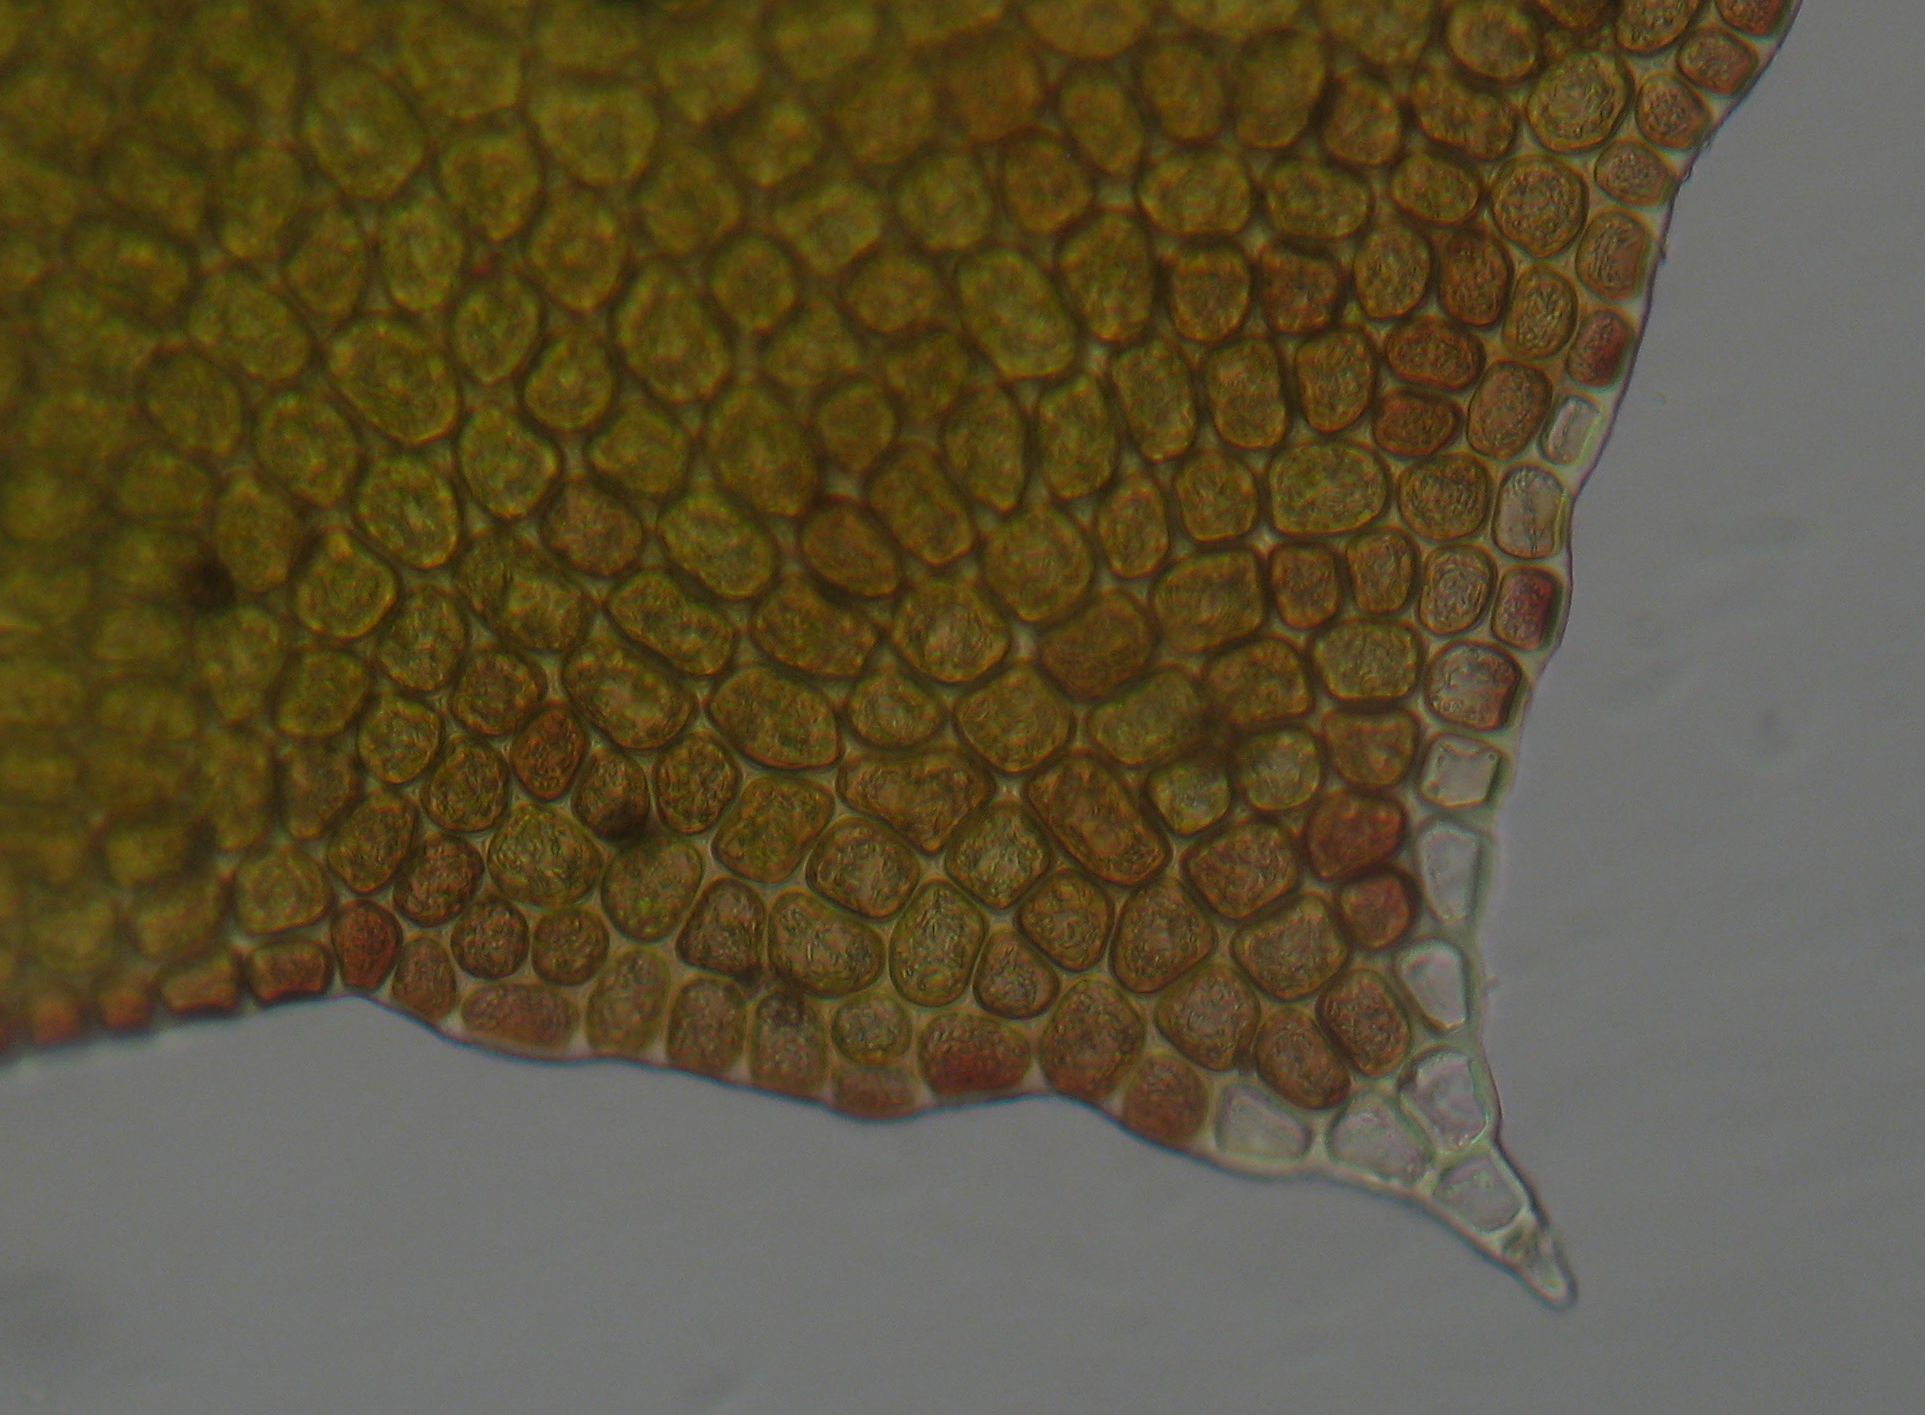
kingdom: Plantae
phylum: Marchantiophyta
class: Jungermanniopsida
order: Porellales
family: Lepidolaenaceae
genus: Lepidolaena
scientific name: Lepidolaena taylorii
